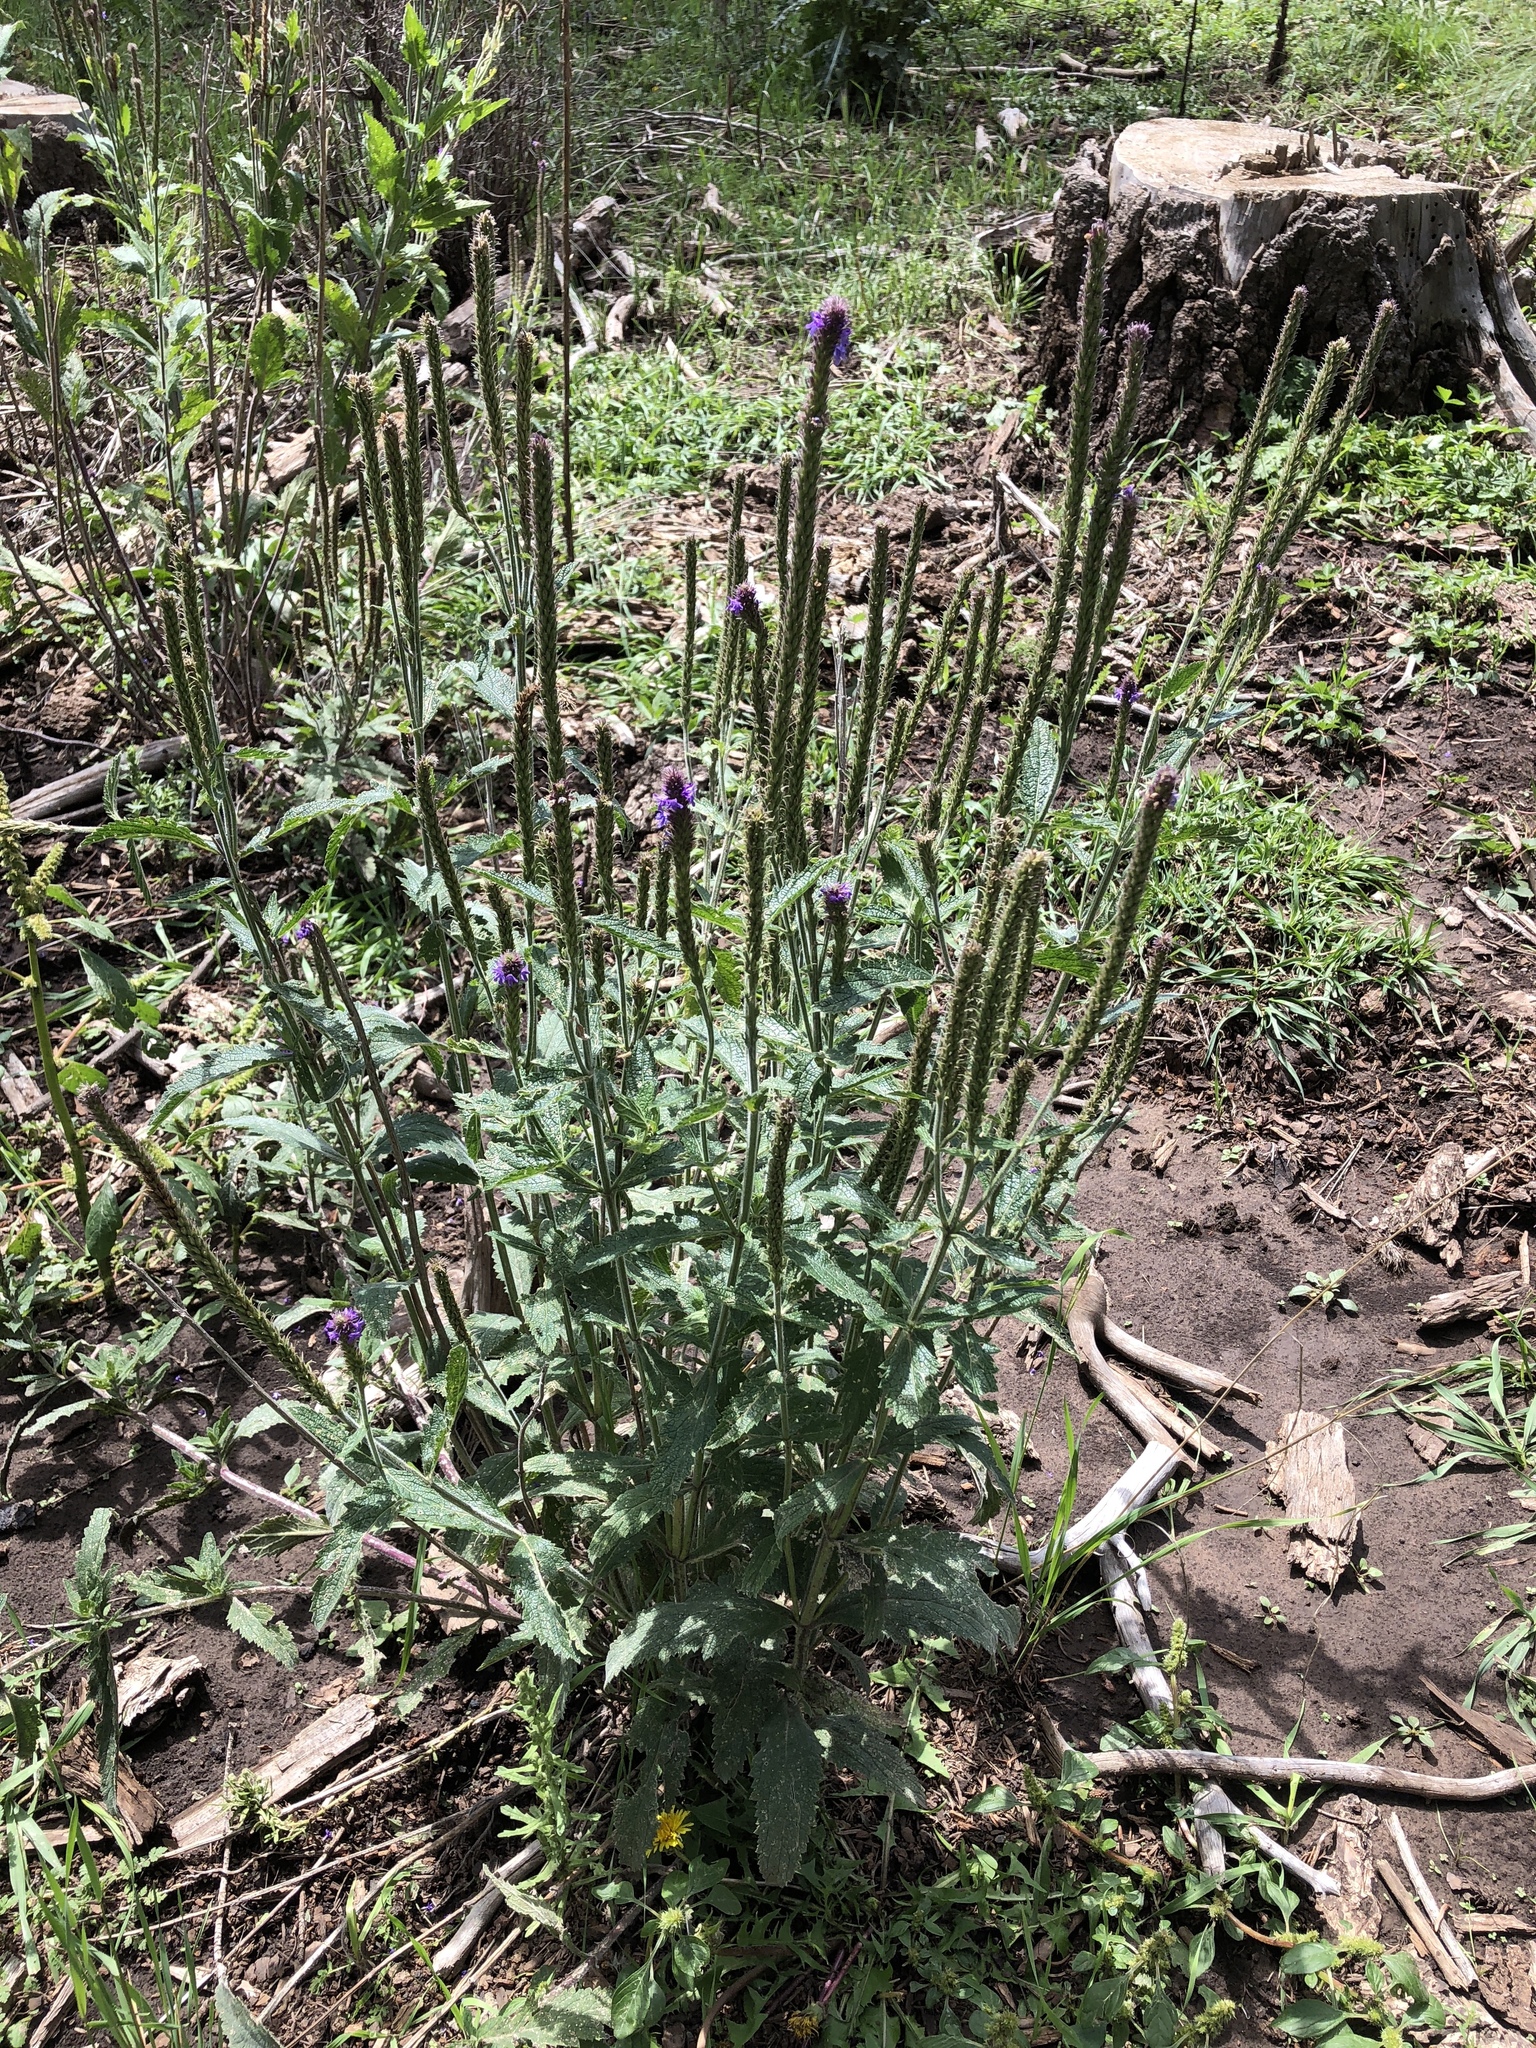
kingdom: Plantae
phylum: Tracheophyta
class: Magnoliopsida
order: Lamiales
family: Verbenaceae
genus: Verbena
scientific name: Verbena macdougalii
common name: New mexico vervain
